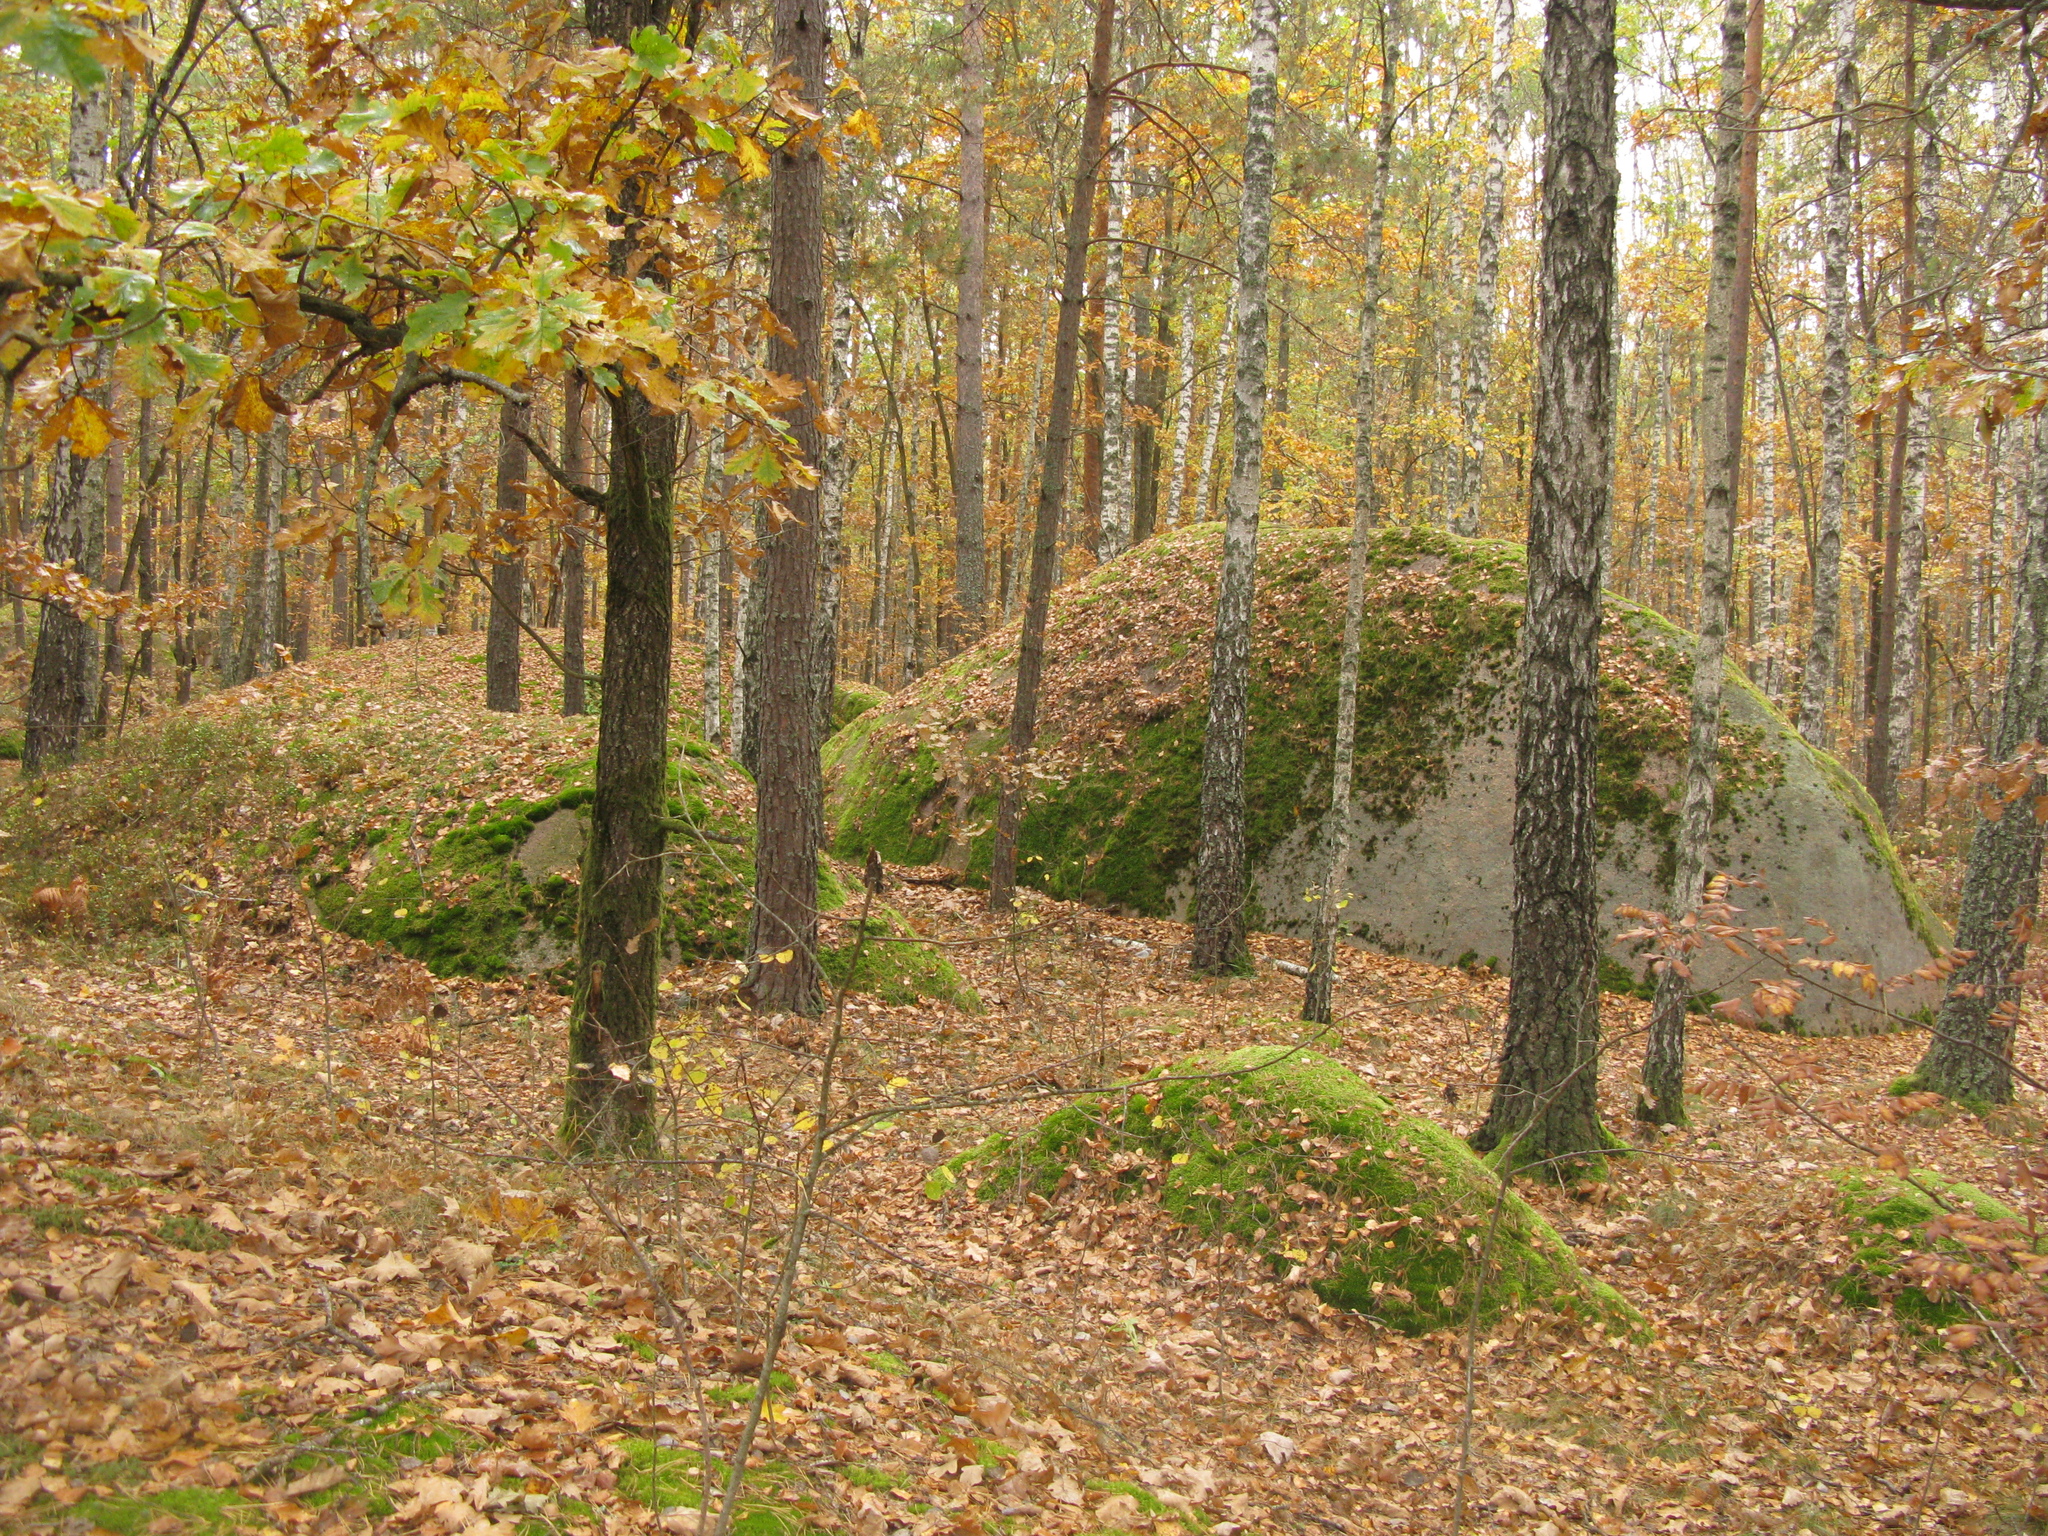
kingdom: Plantae
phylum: Tracheophyta
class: Magnoliopsida
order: Fagales
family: Fagaceae
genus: Quercus
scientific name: Quercus robur
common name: Pedunculate oak
